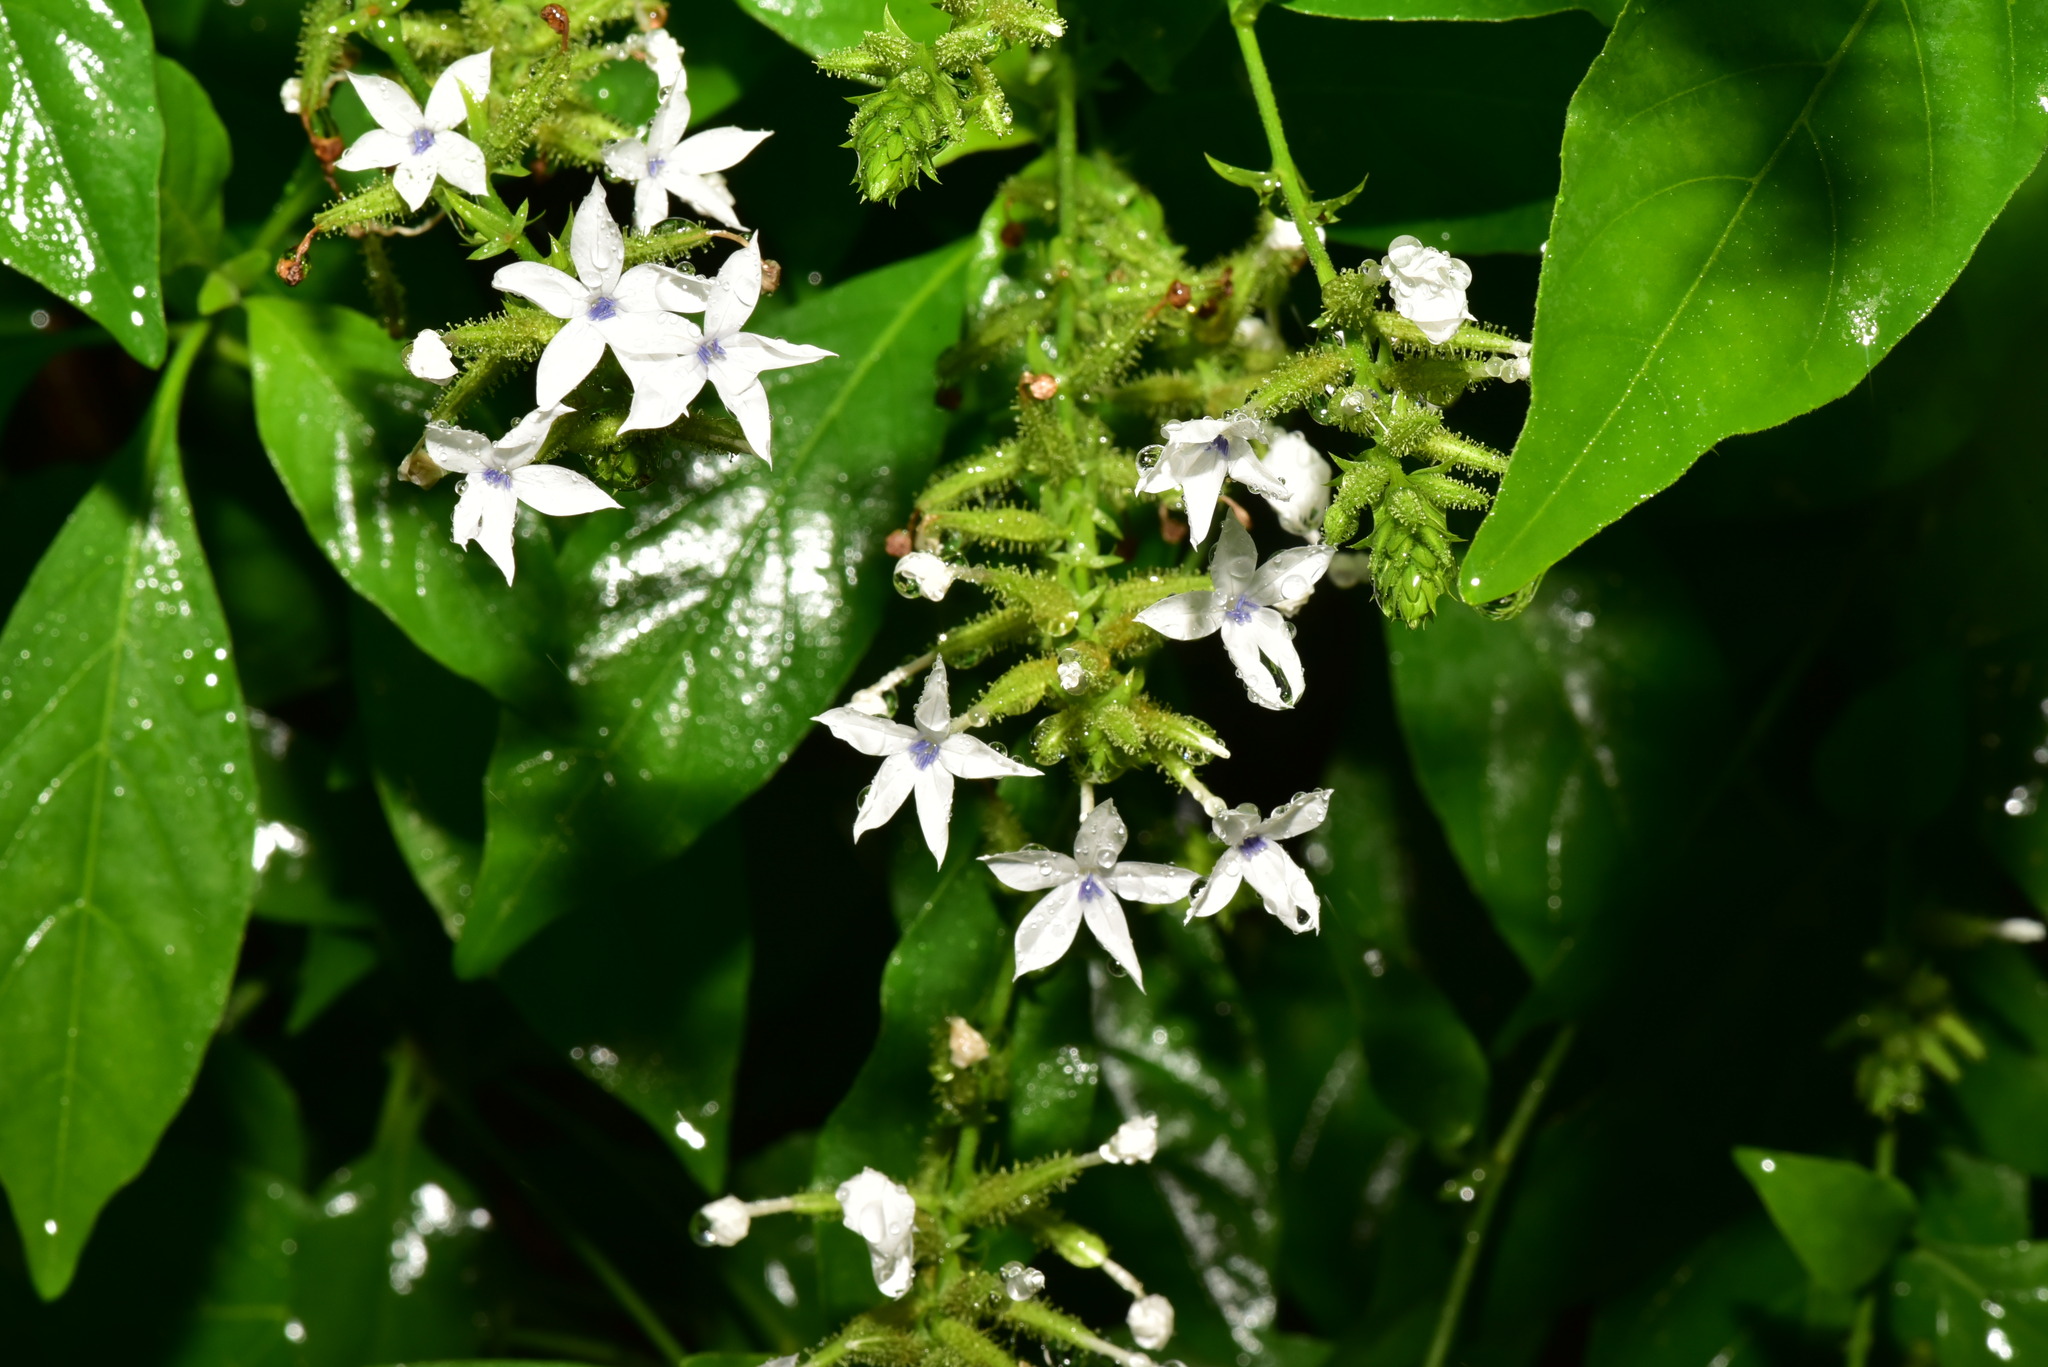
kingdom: Plantae
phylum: Tracheophyta
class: Magnoliopsida
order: Caryophyllales
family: Plumbaginaceae
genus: Plumbago
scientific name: Plumbago zeylanica
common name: Doctorbush
